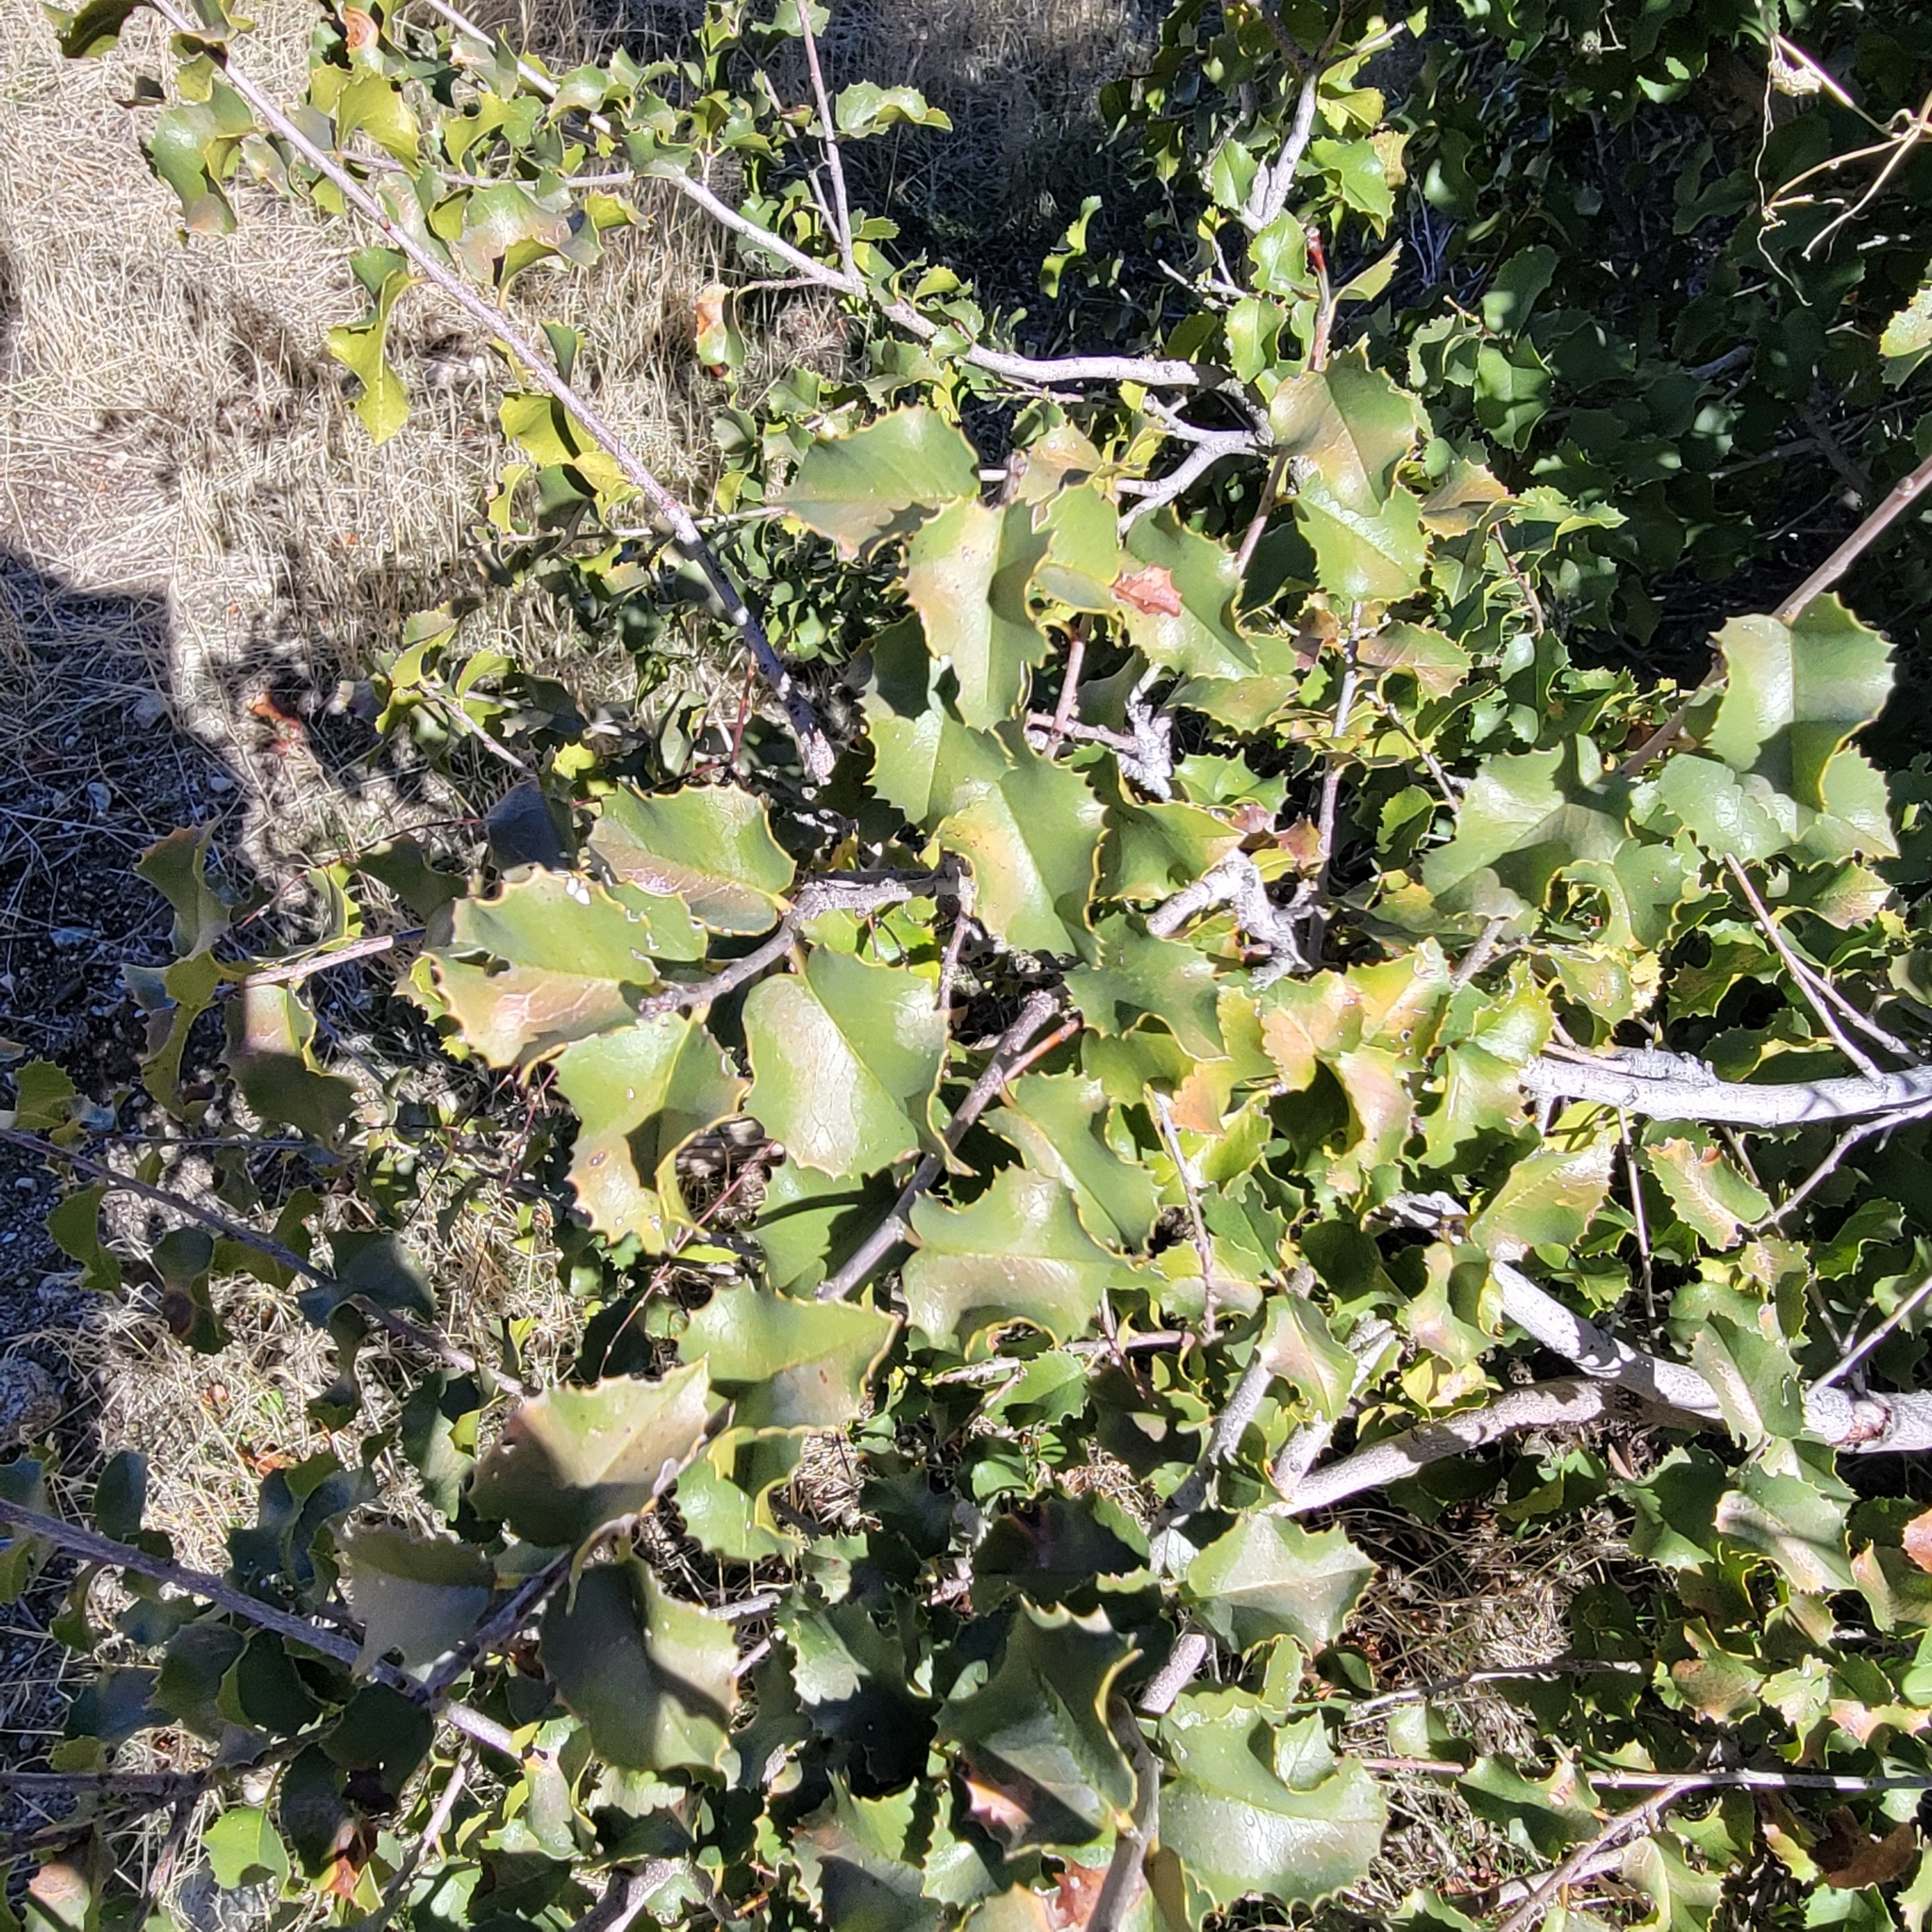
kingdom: Plantae
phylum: Tracheophyta
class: Magnoliopsida
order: Rosales
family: Rosaceae
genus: Prunus
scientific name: Prunus ilicifolia
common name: Hollyleaf cherry
